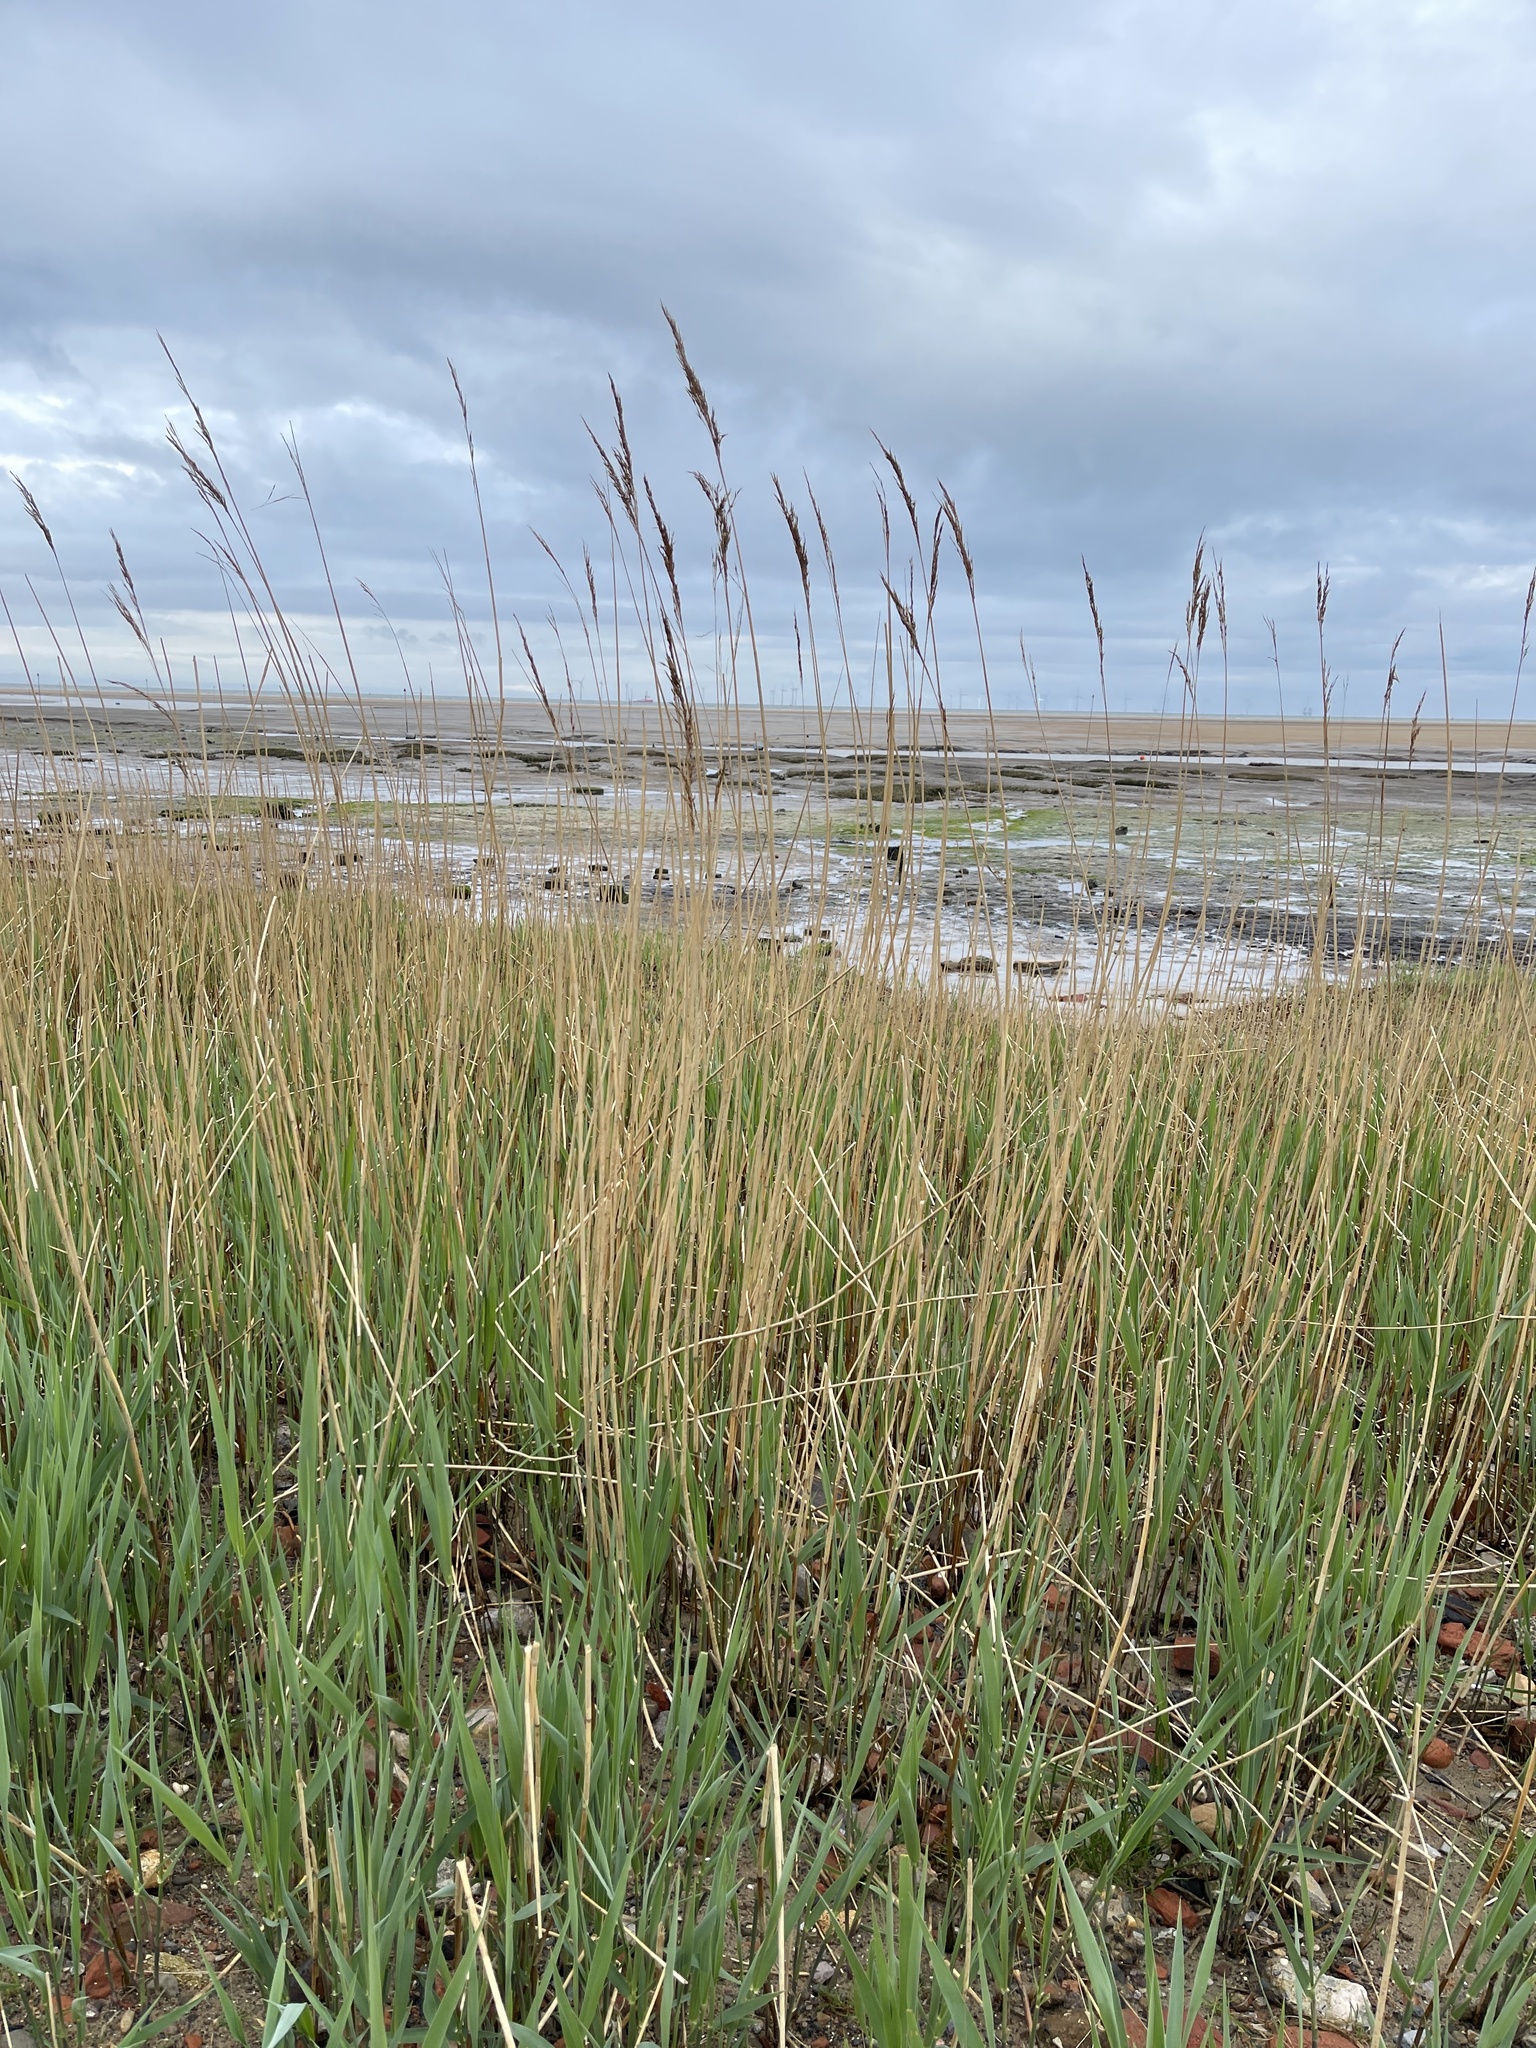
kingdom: Plantae
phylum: Tracheophyta
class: Liliopsida
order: Poales
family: Poaceae
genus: Phragmites
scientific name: Phragmites australis
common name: Common reed
